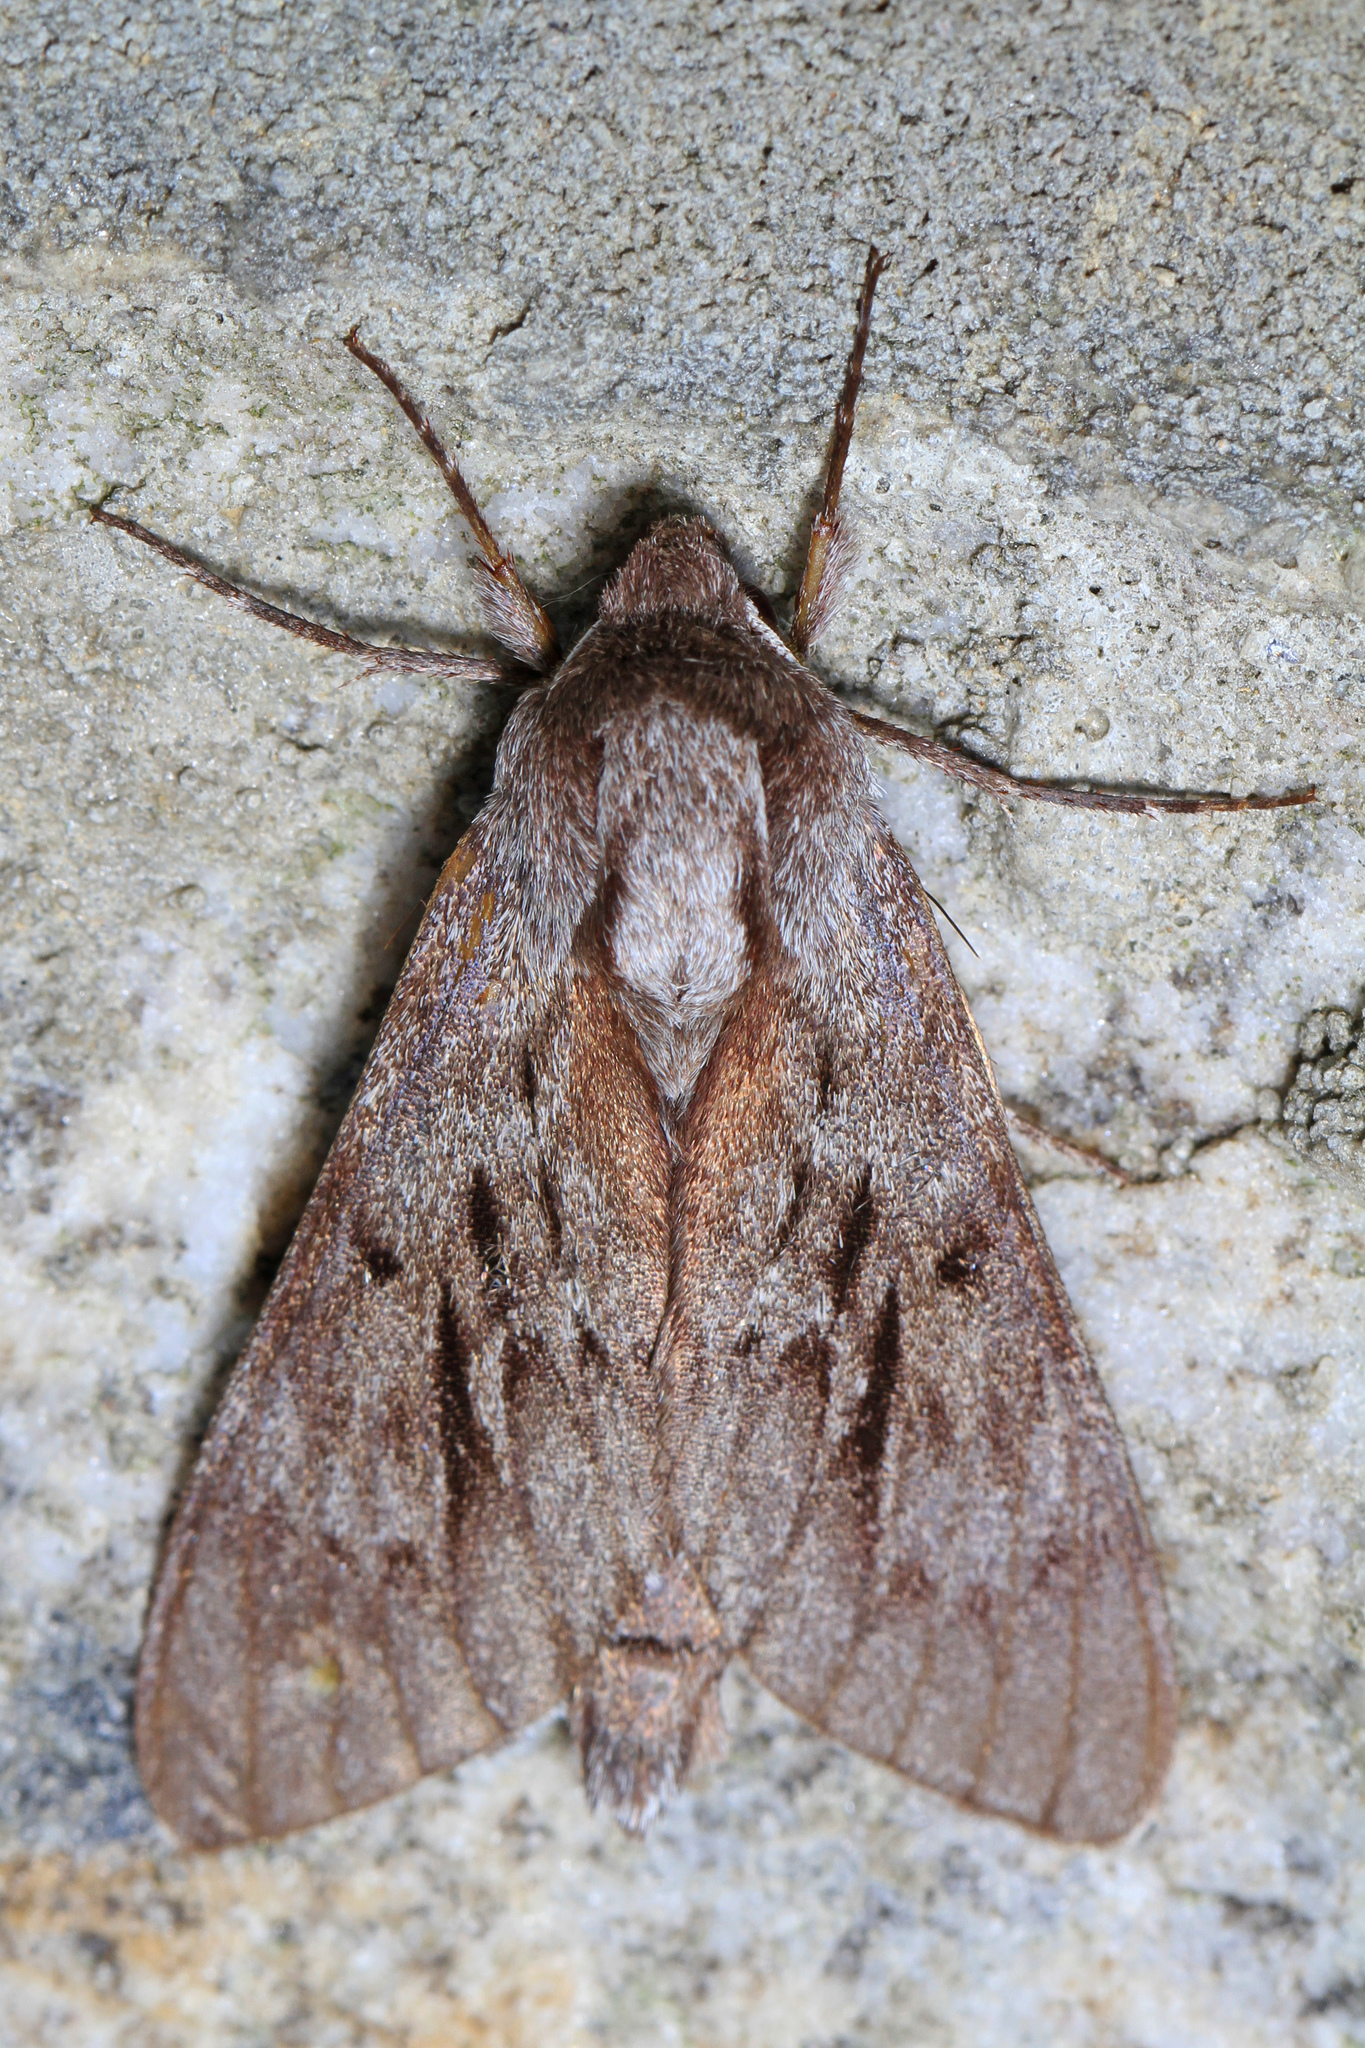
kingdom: Animalia
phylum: Arthropoda
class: Insecta
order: Lepidoptera
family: Sphingidae
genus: Lapara
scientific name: Lapara coniferarum
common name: Southern pine sphinx
